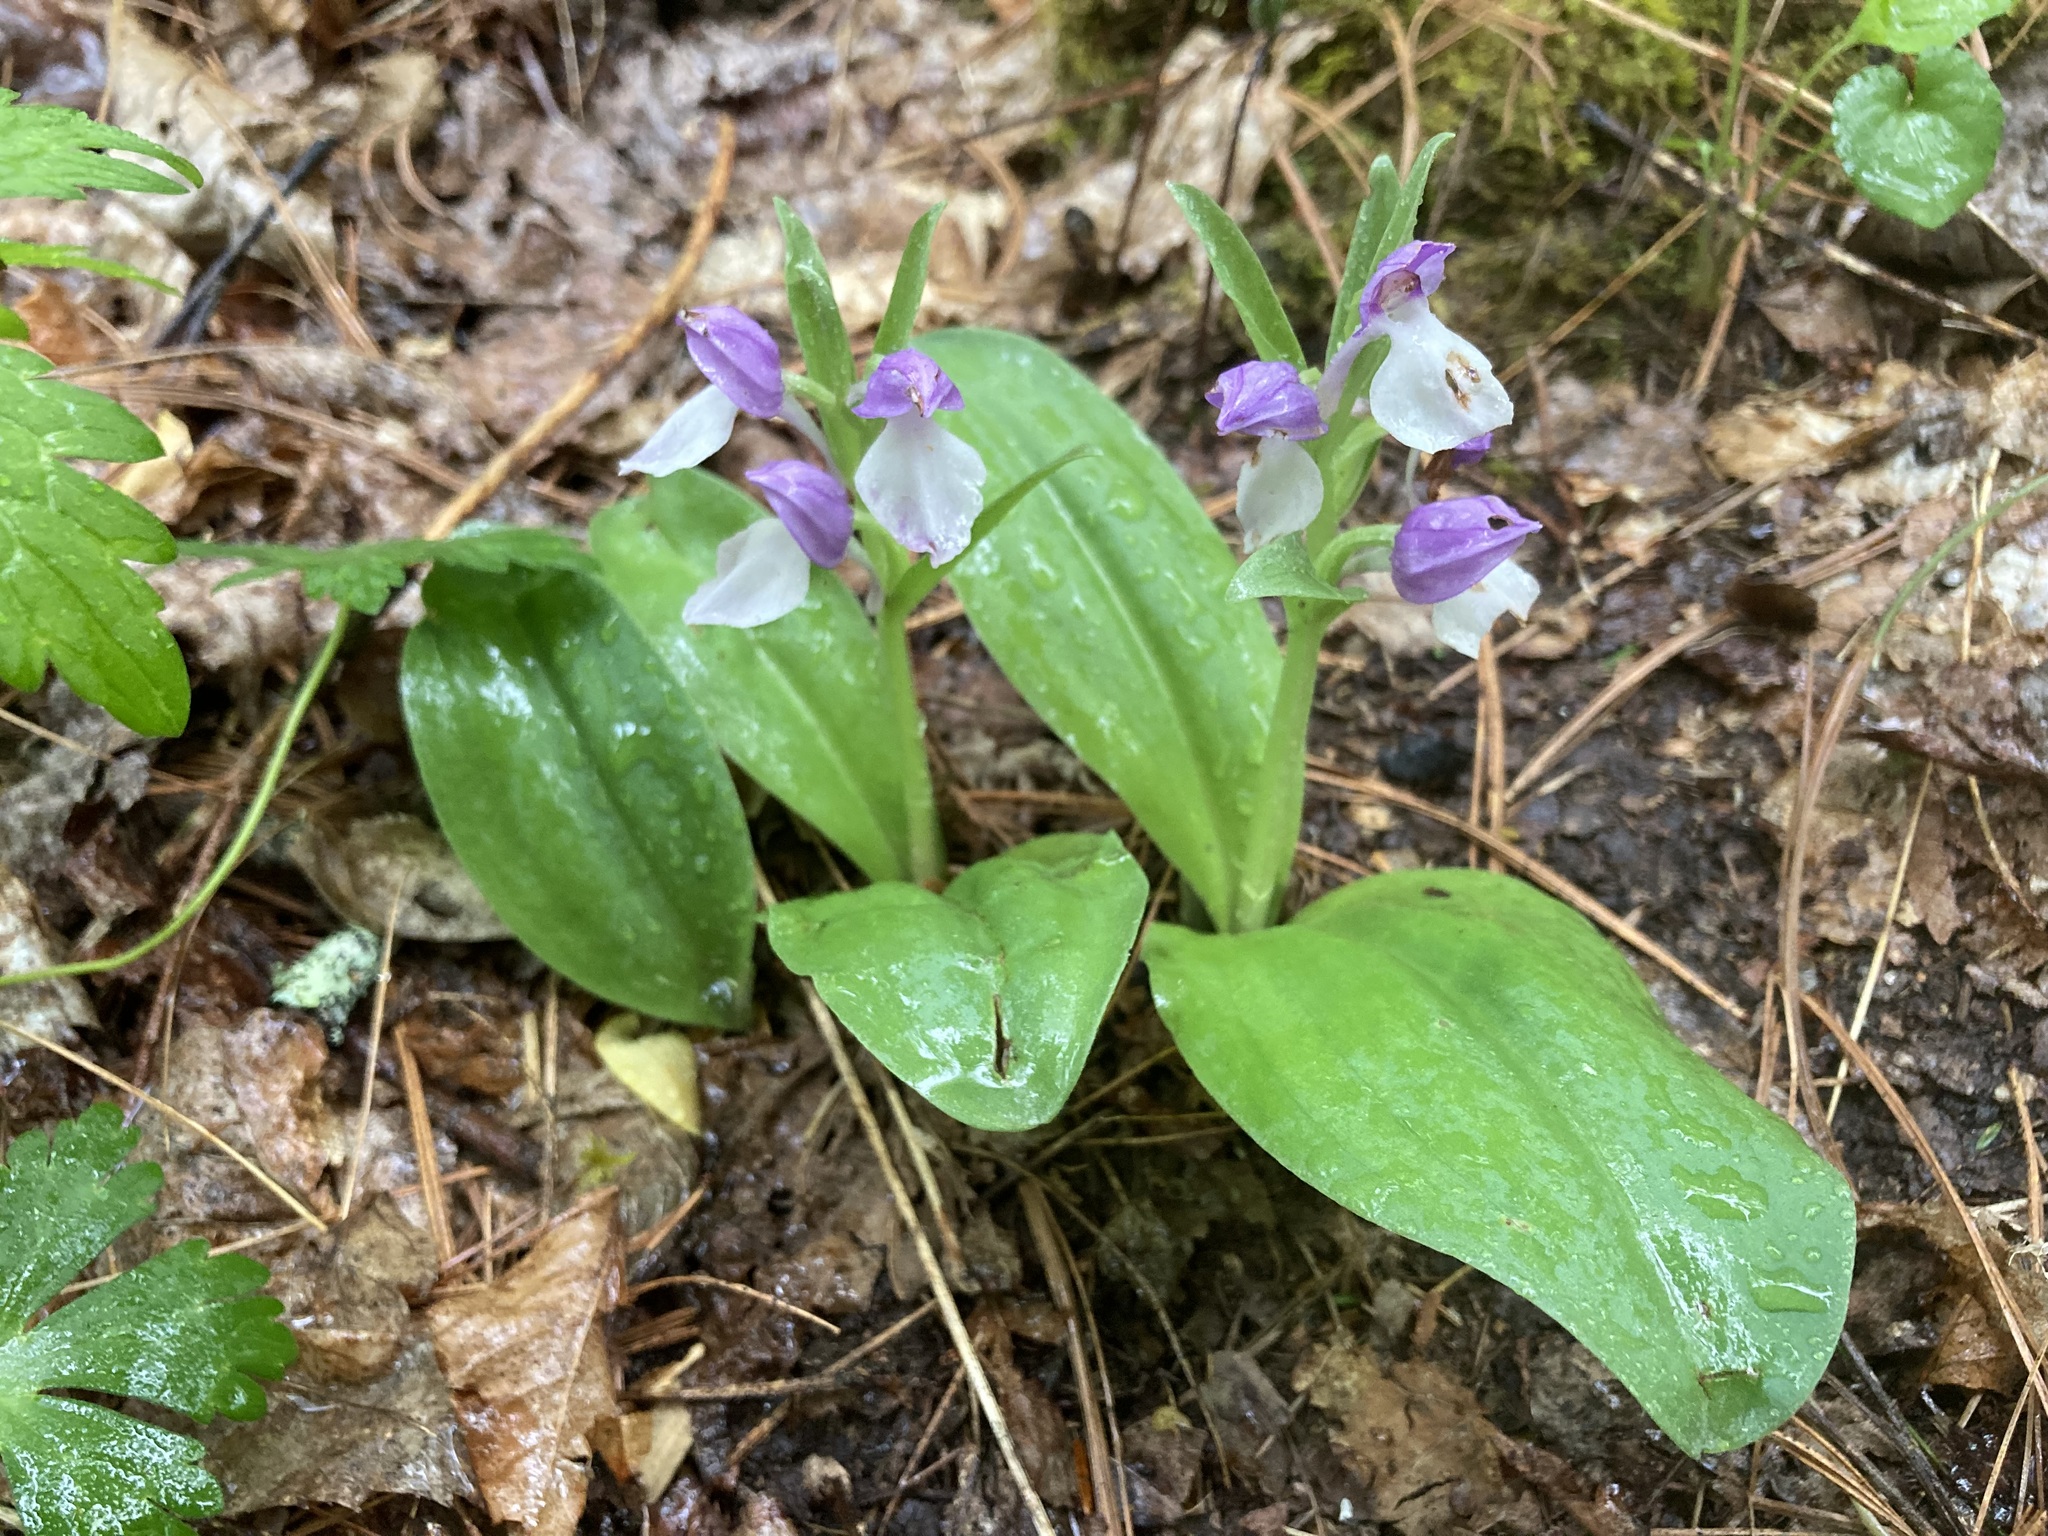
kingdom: Plantae
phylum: Tracheophyta
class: Liliopsida
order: Asparagales
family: Orchidaceae
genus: Galearis
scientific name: Galearis spectabilis
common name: Purple-hooded orchis
